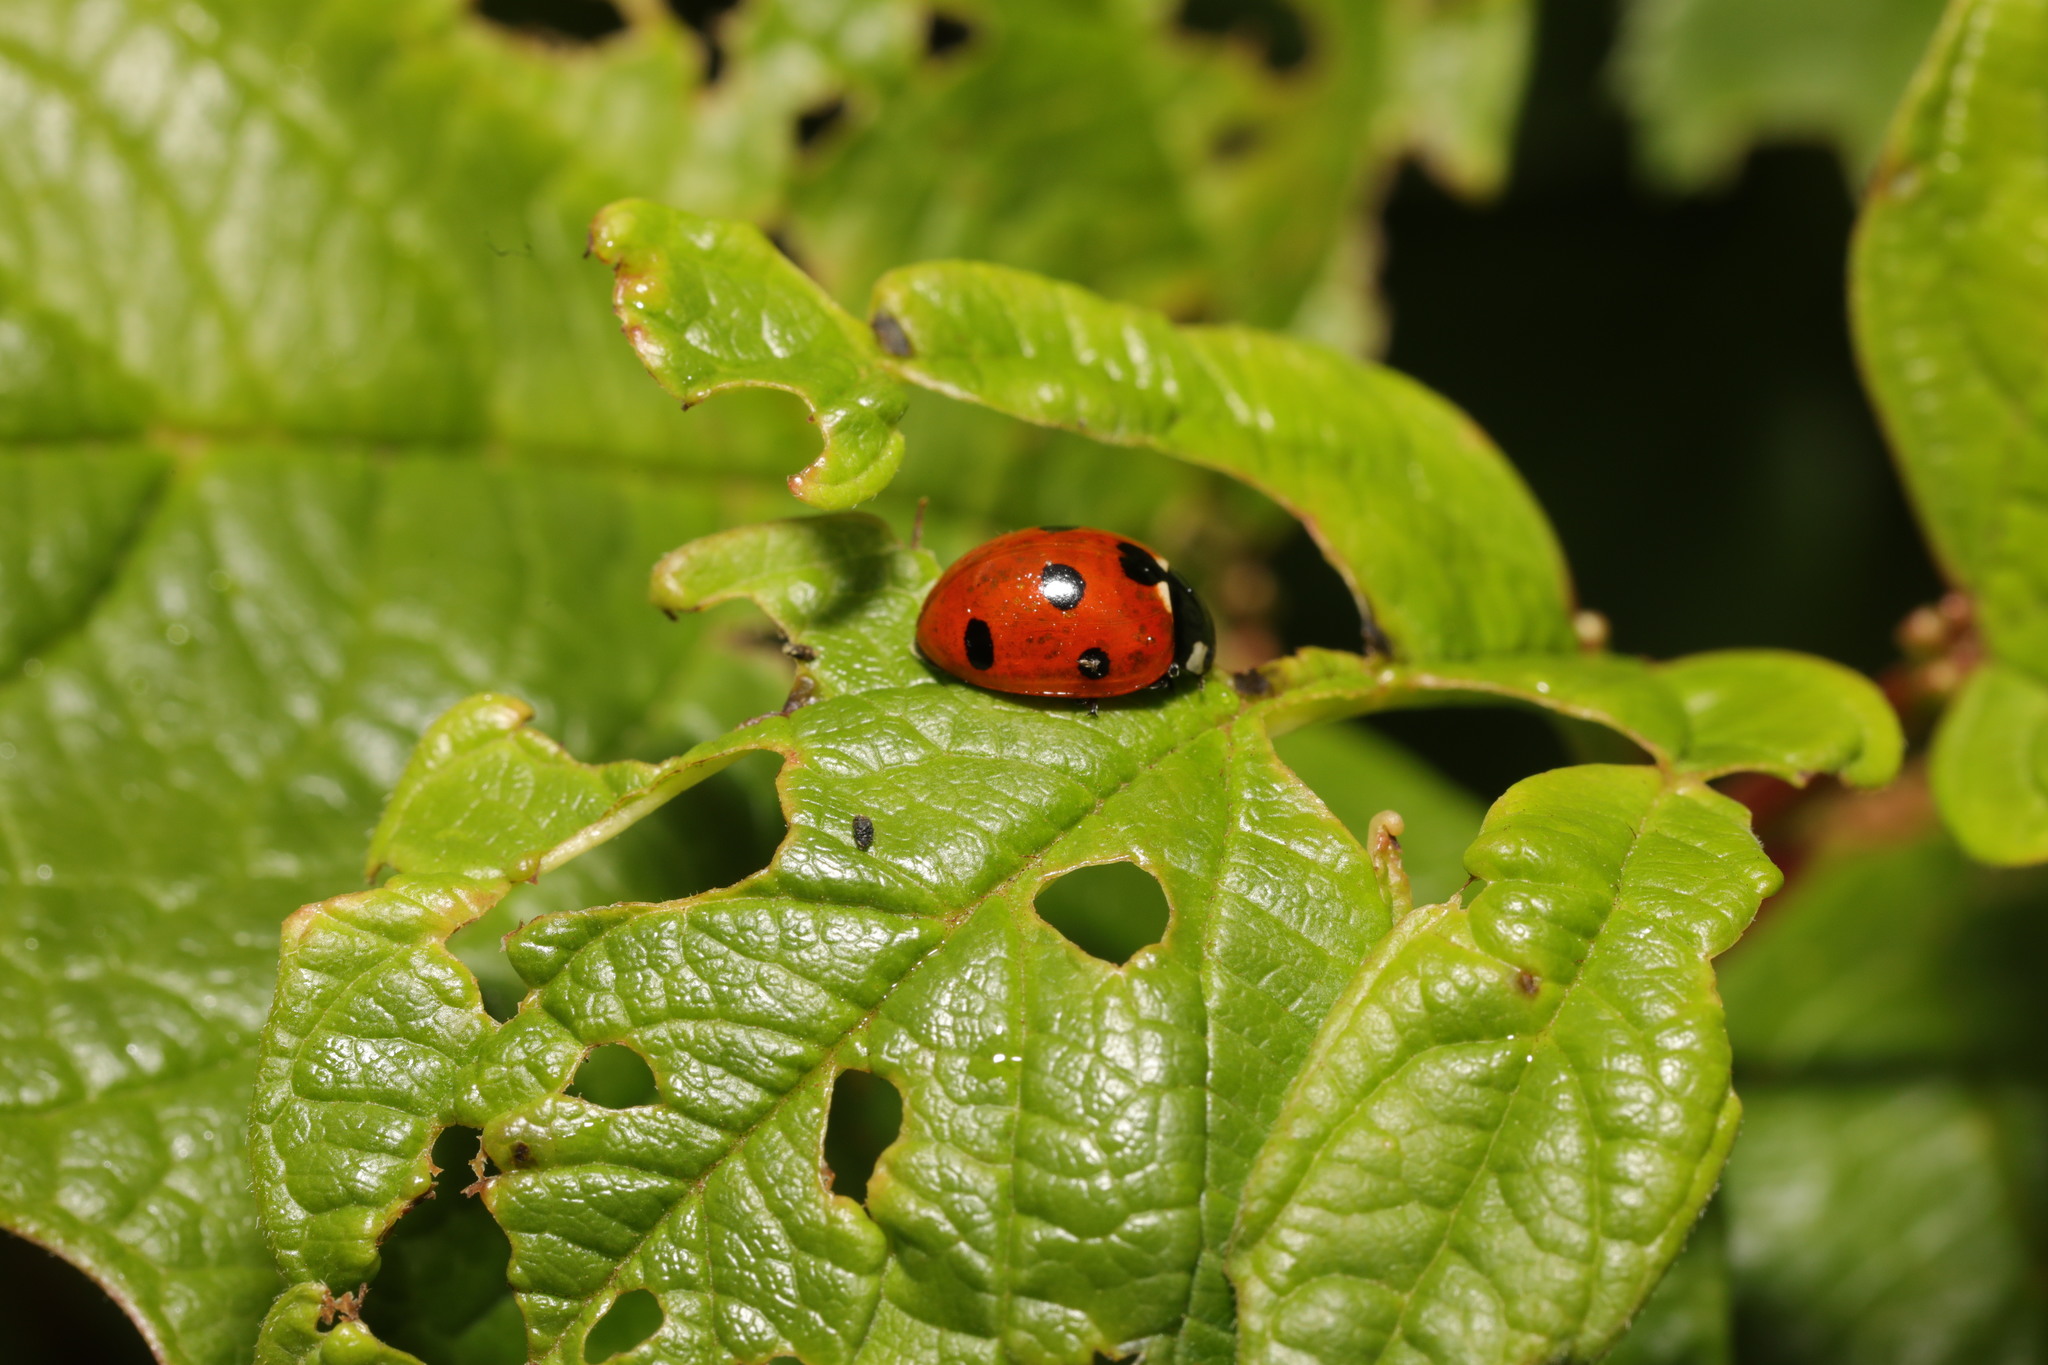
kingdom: Animalia
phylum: Arthropoda
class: Insecta
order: Coleoptera
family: Coccinellidae
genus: Coccinella
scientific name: Coccinella septempunctata
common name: Sevenspotted lady beetle
